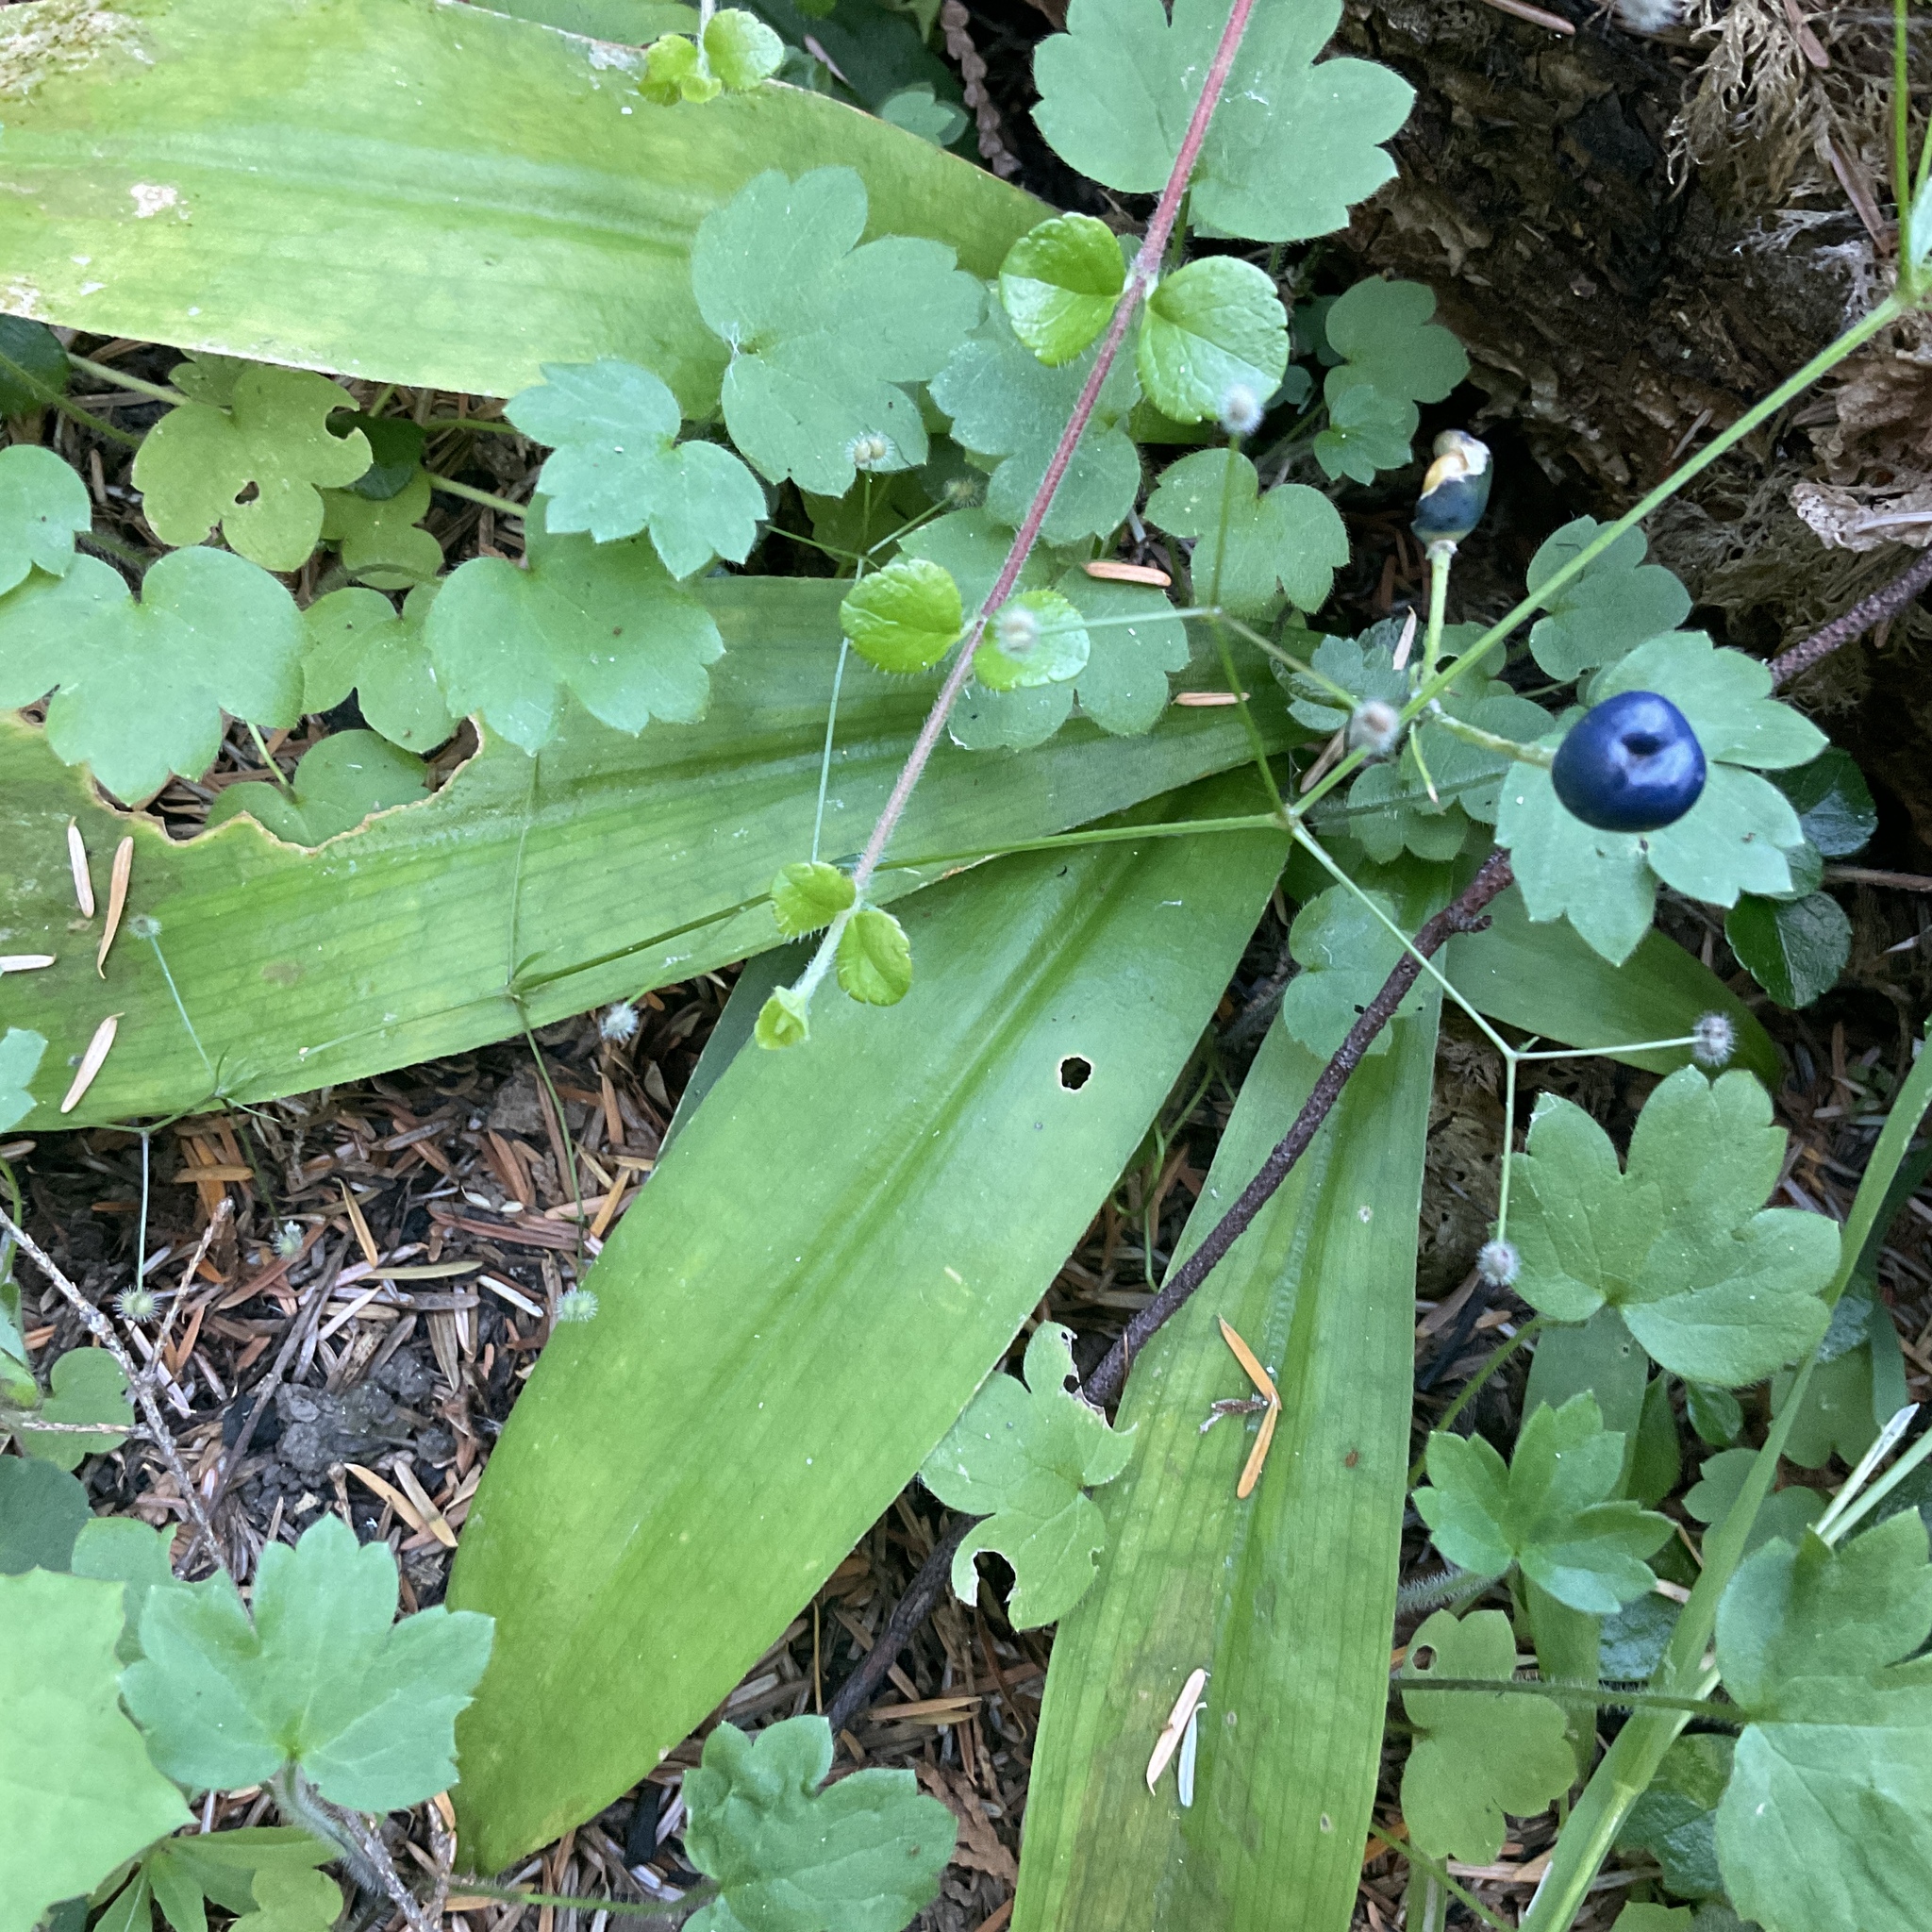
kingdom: Plantae
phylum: Tracheophyta
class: Liliopsida
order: Liliales
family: Liliaceae
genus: Clintonia
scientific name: Clintonia uniflora
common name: Queen's cup
